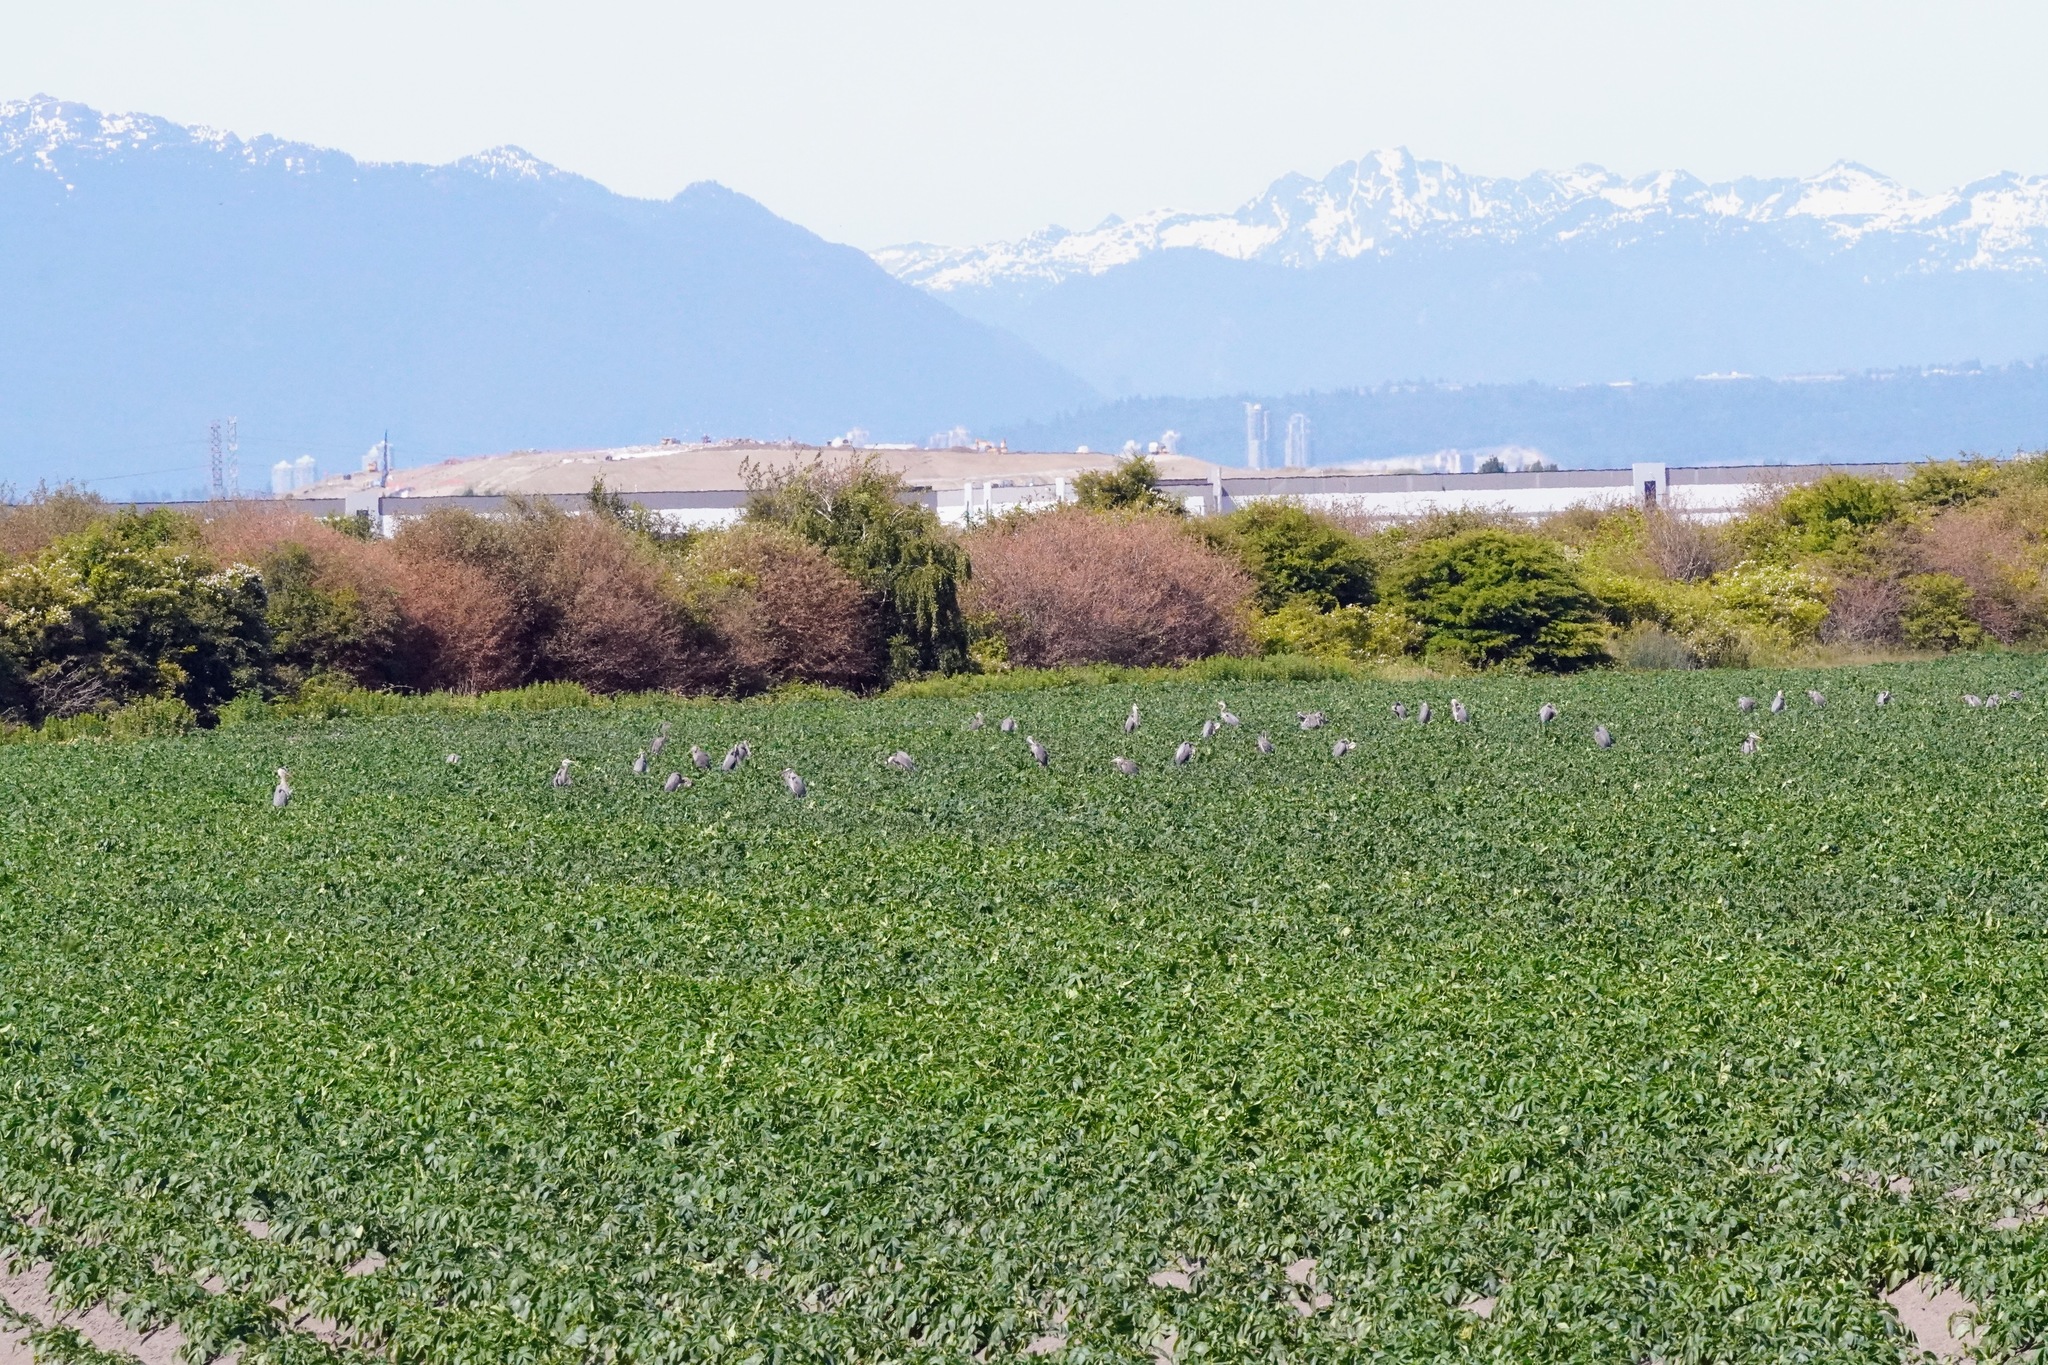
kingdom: Animalia
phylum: Chordata
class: Aves
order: Pelecaniformes
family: Ardeidae
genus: Ardea
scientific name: Ardea herodias
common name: Great blue heron
